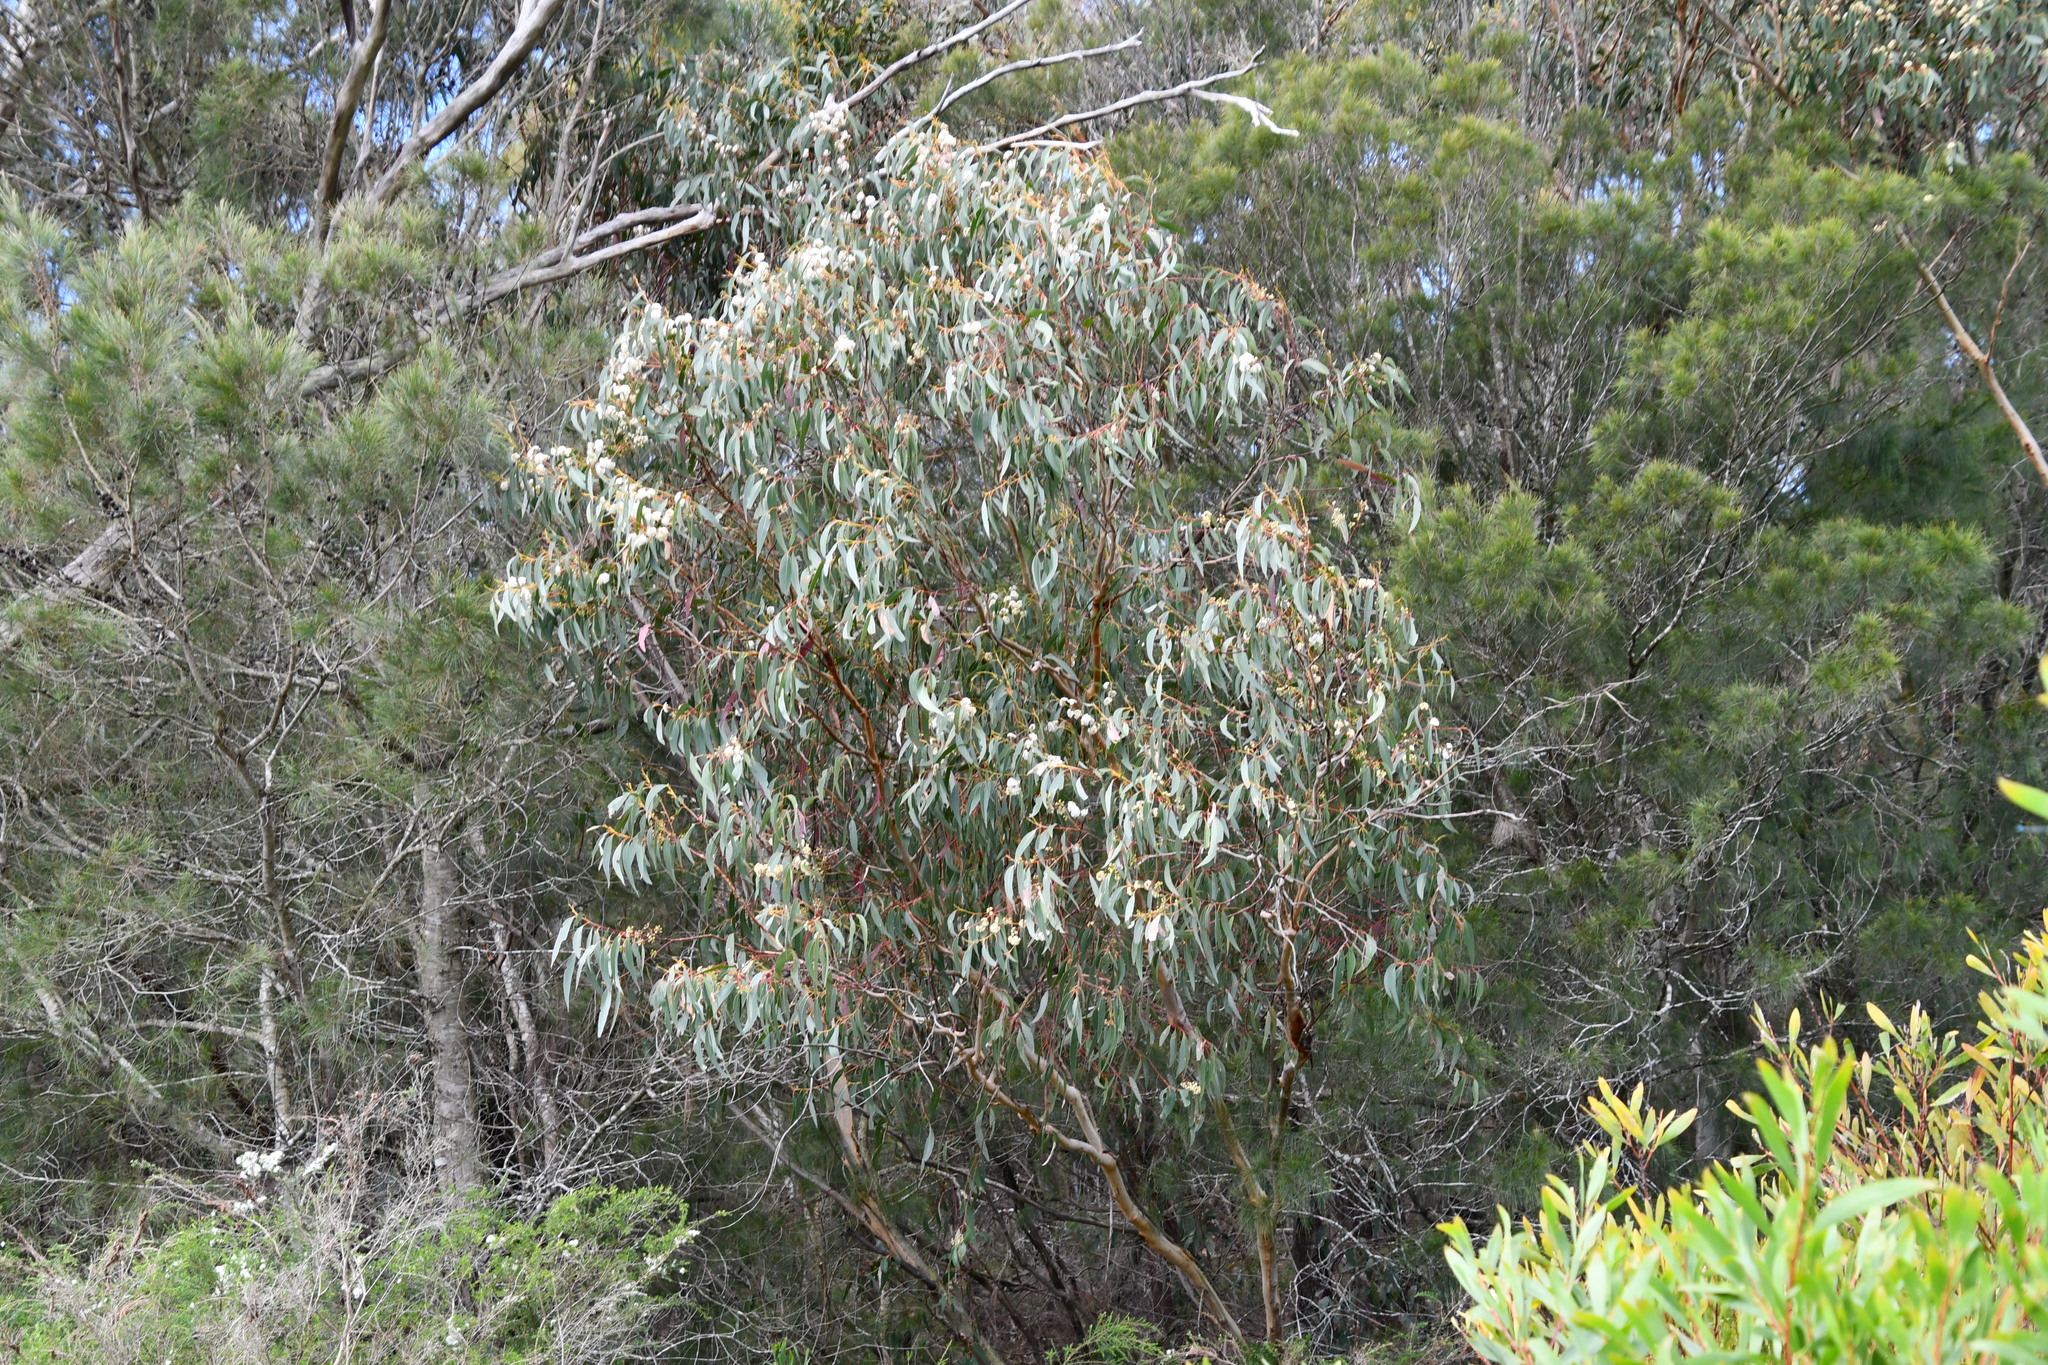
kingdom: Plantae
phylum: Tracheophyta
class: Magnoliopsida
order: Myrtales
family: Myrtaceae
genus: Eucalyptus
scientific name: Eucalyptus sieberi
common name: Black-ash
